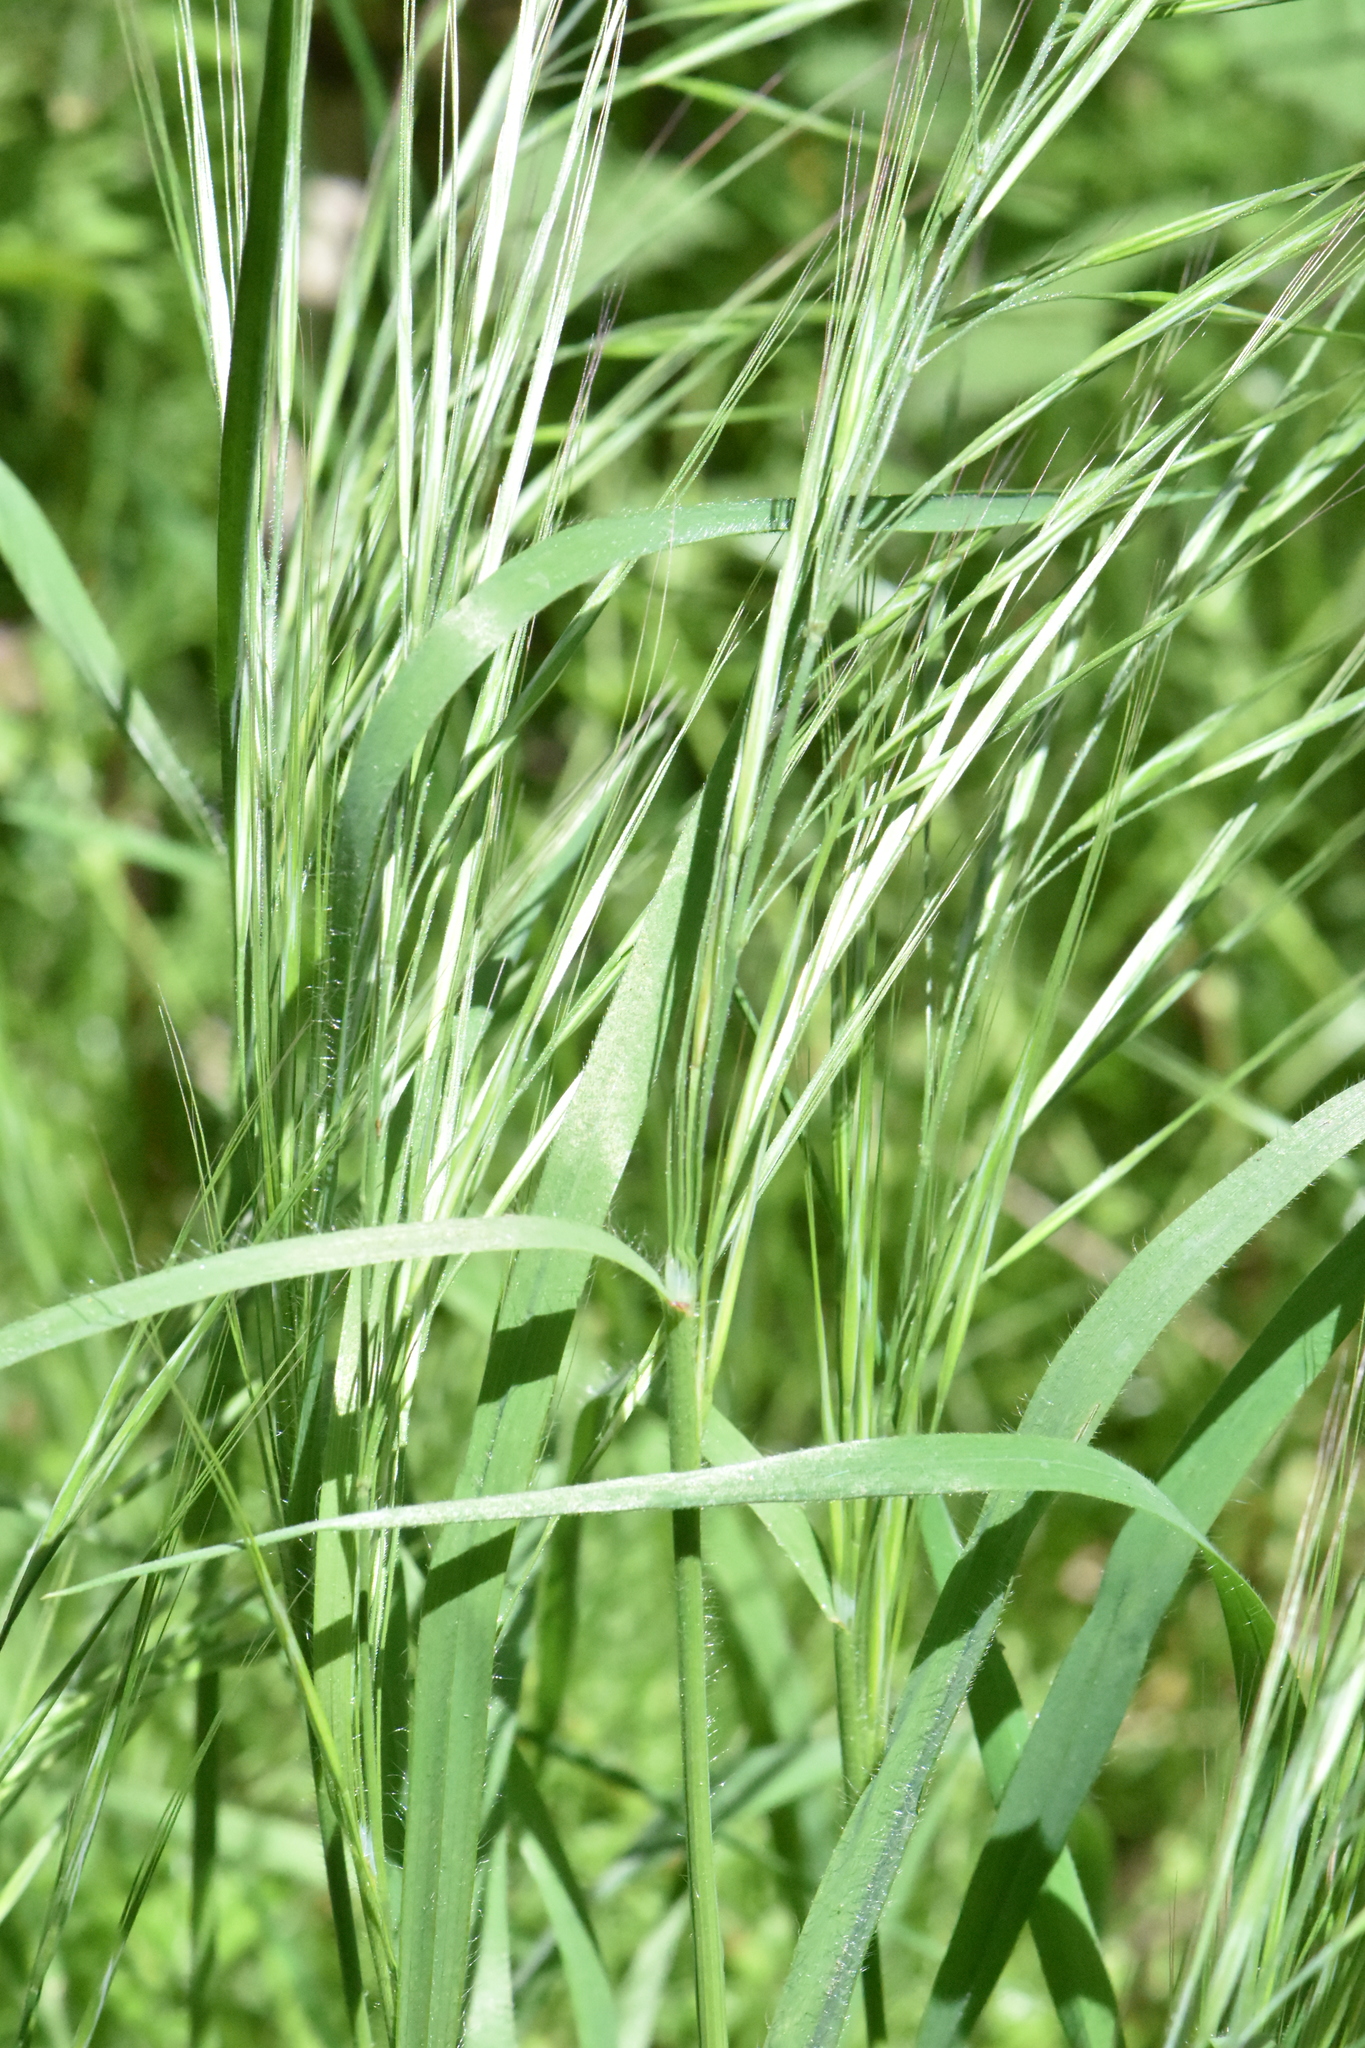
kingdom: Plantae
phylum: Tracheophyta
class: Liliopsida
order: Poales
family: Poaceae
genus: Bromus
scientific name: Bromus diandrus
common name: Ripgut brome
